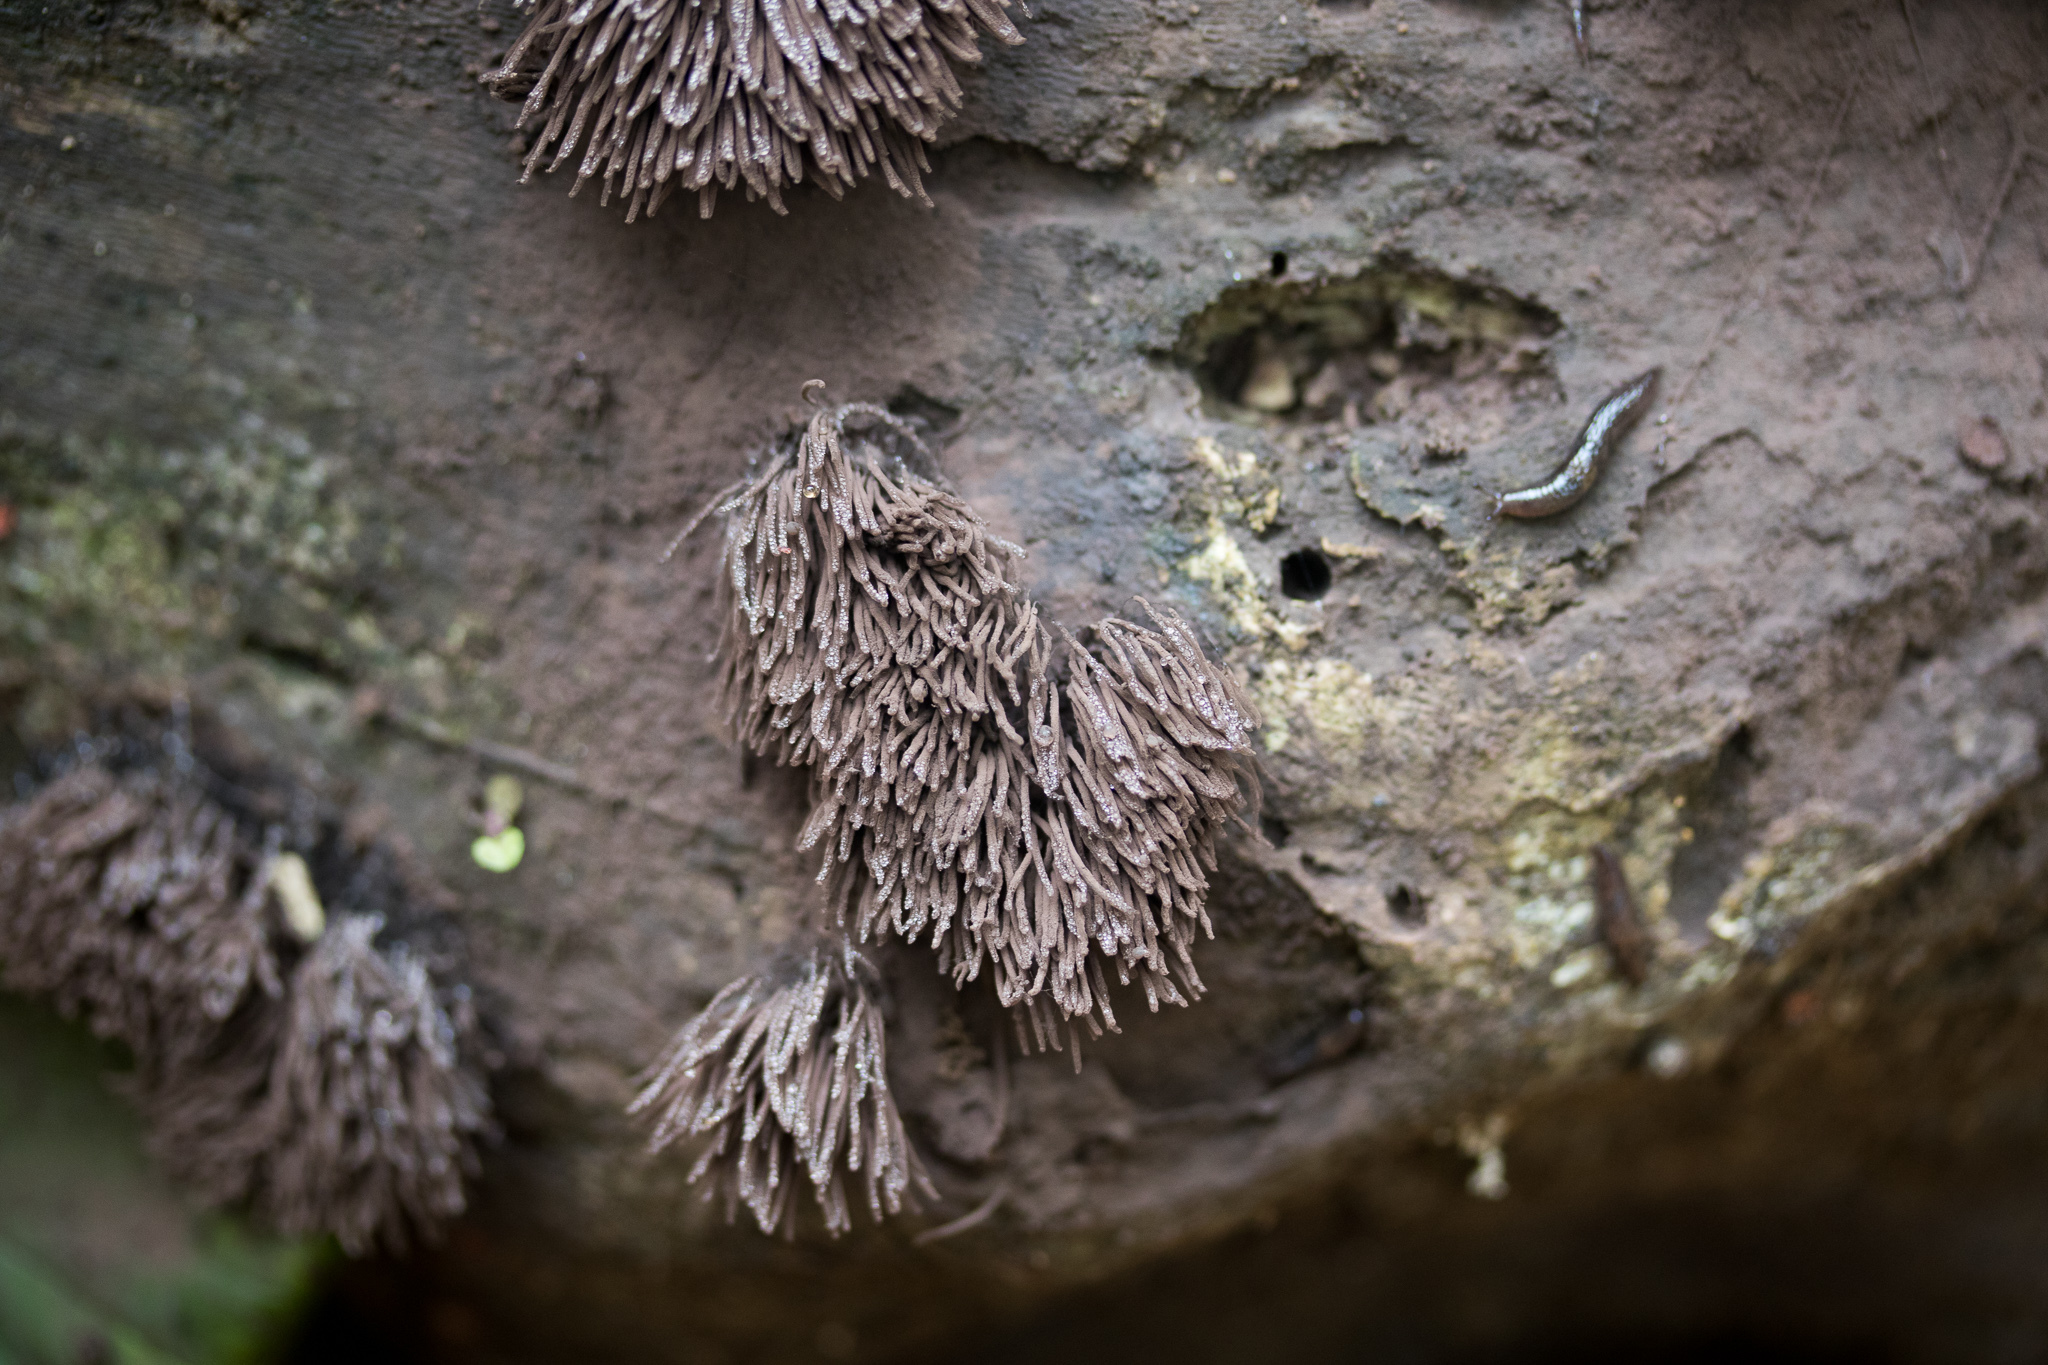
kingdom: Protozoa
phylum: Mycetozoa
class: Myxomycetes
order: Stemonitidales
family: Stemonitidaceae
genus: Stemonitis
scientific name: Stemonitis splendens
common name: Chocolate tube slime
